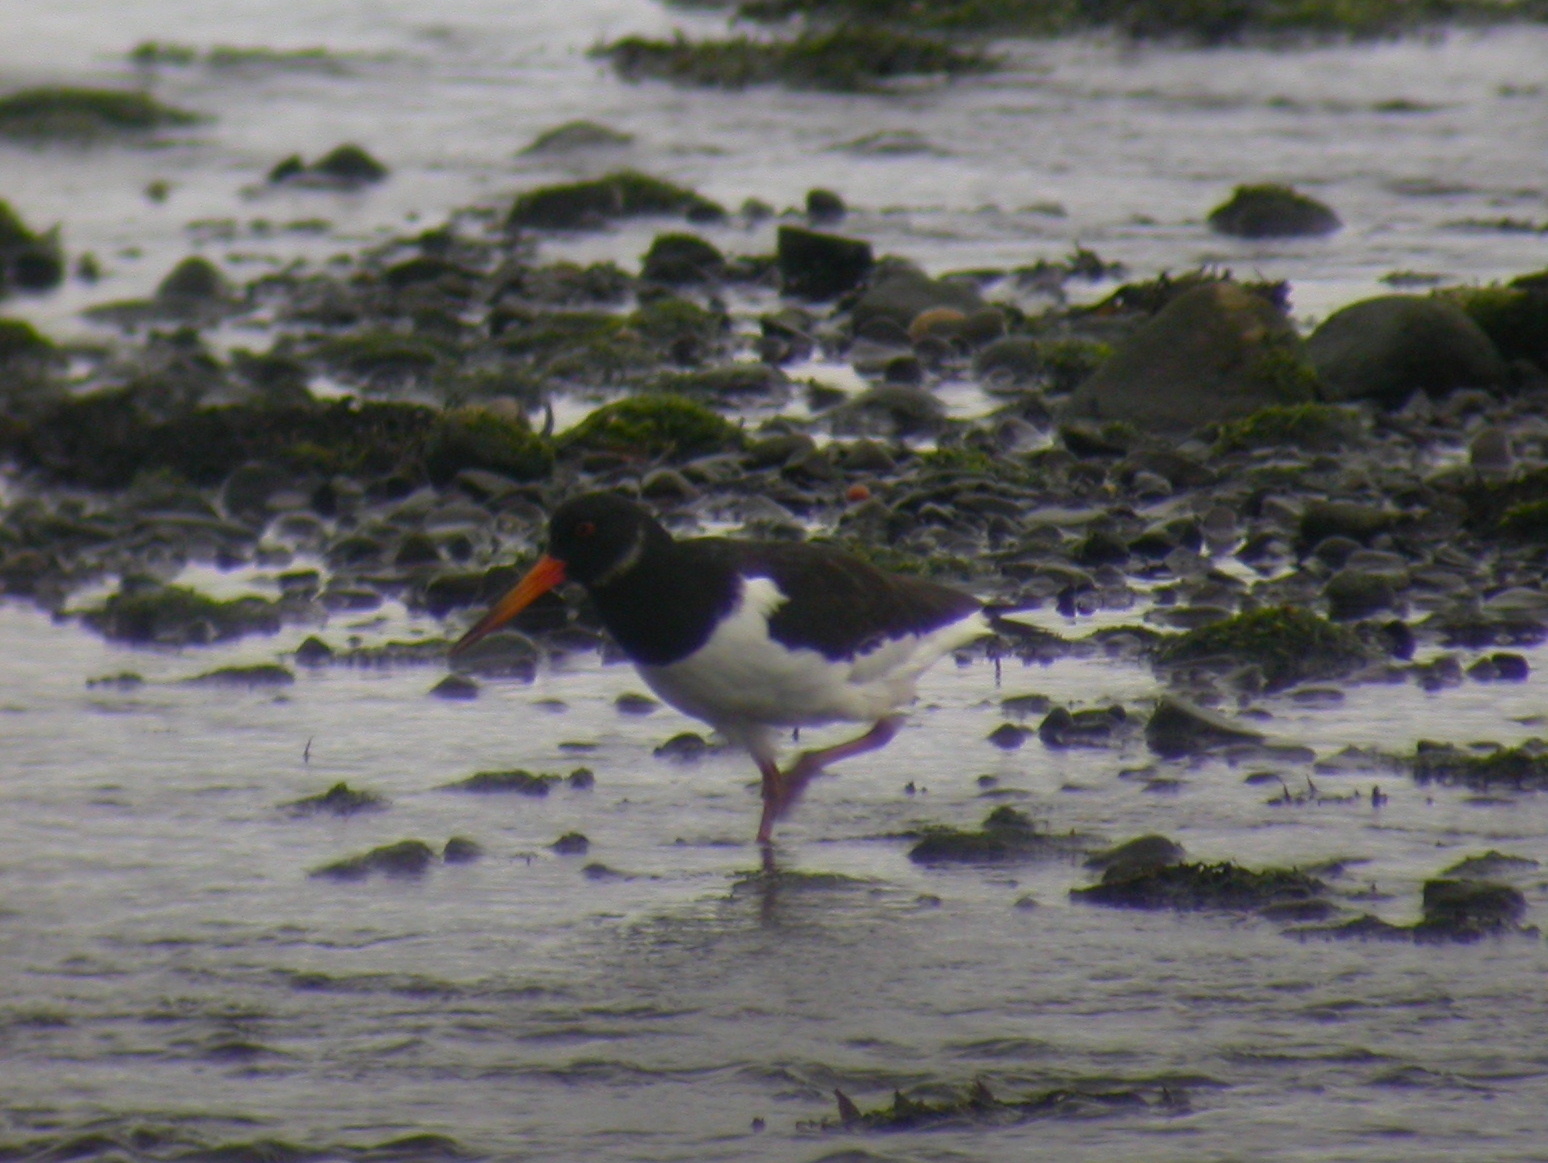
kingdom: Animalia
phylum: Chordata
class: Aves
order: Charadriiformes
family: Haematopodidae
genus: Haematopus
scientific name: Haematopus ostralegus
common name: Eurasian oystercatcher
